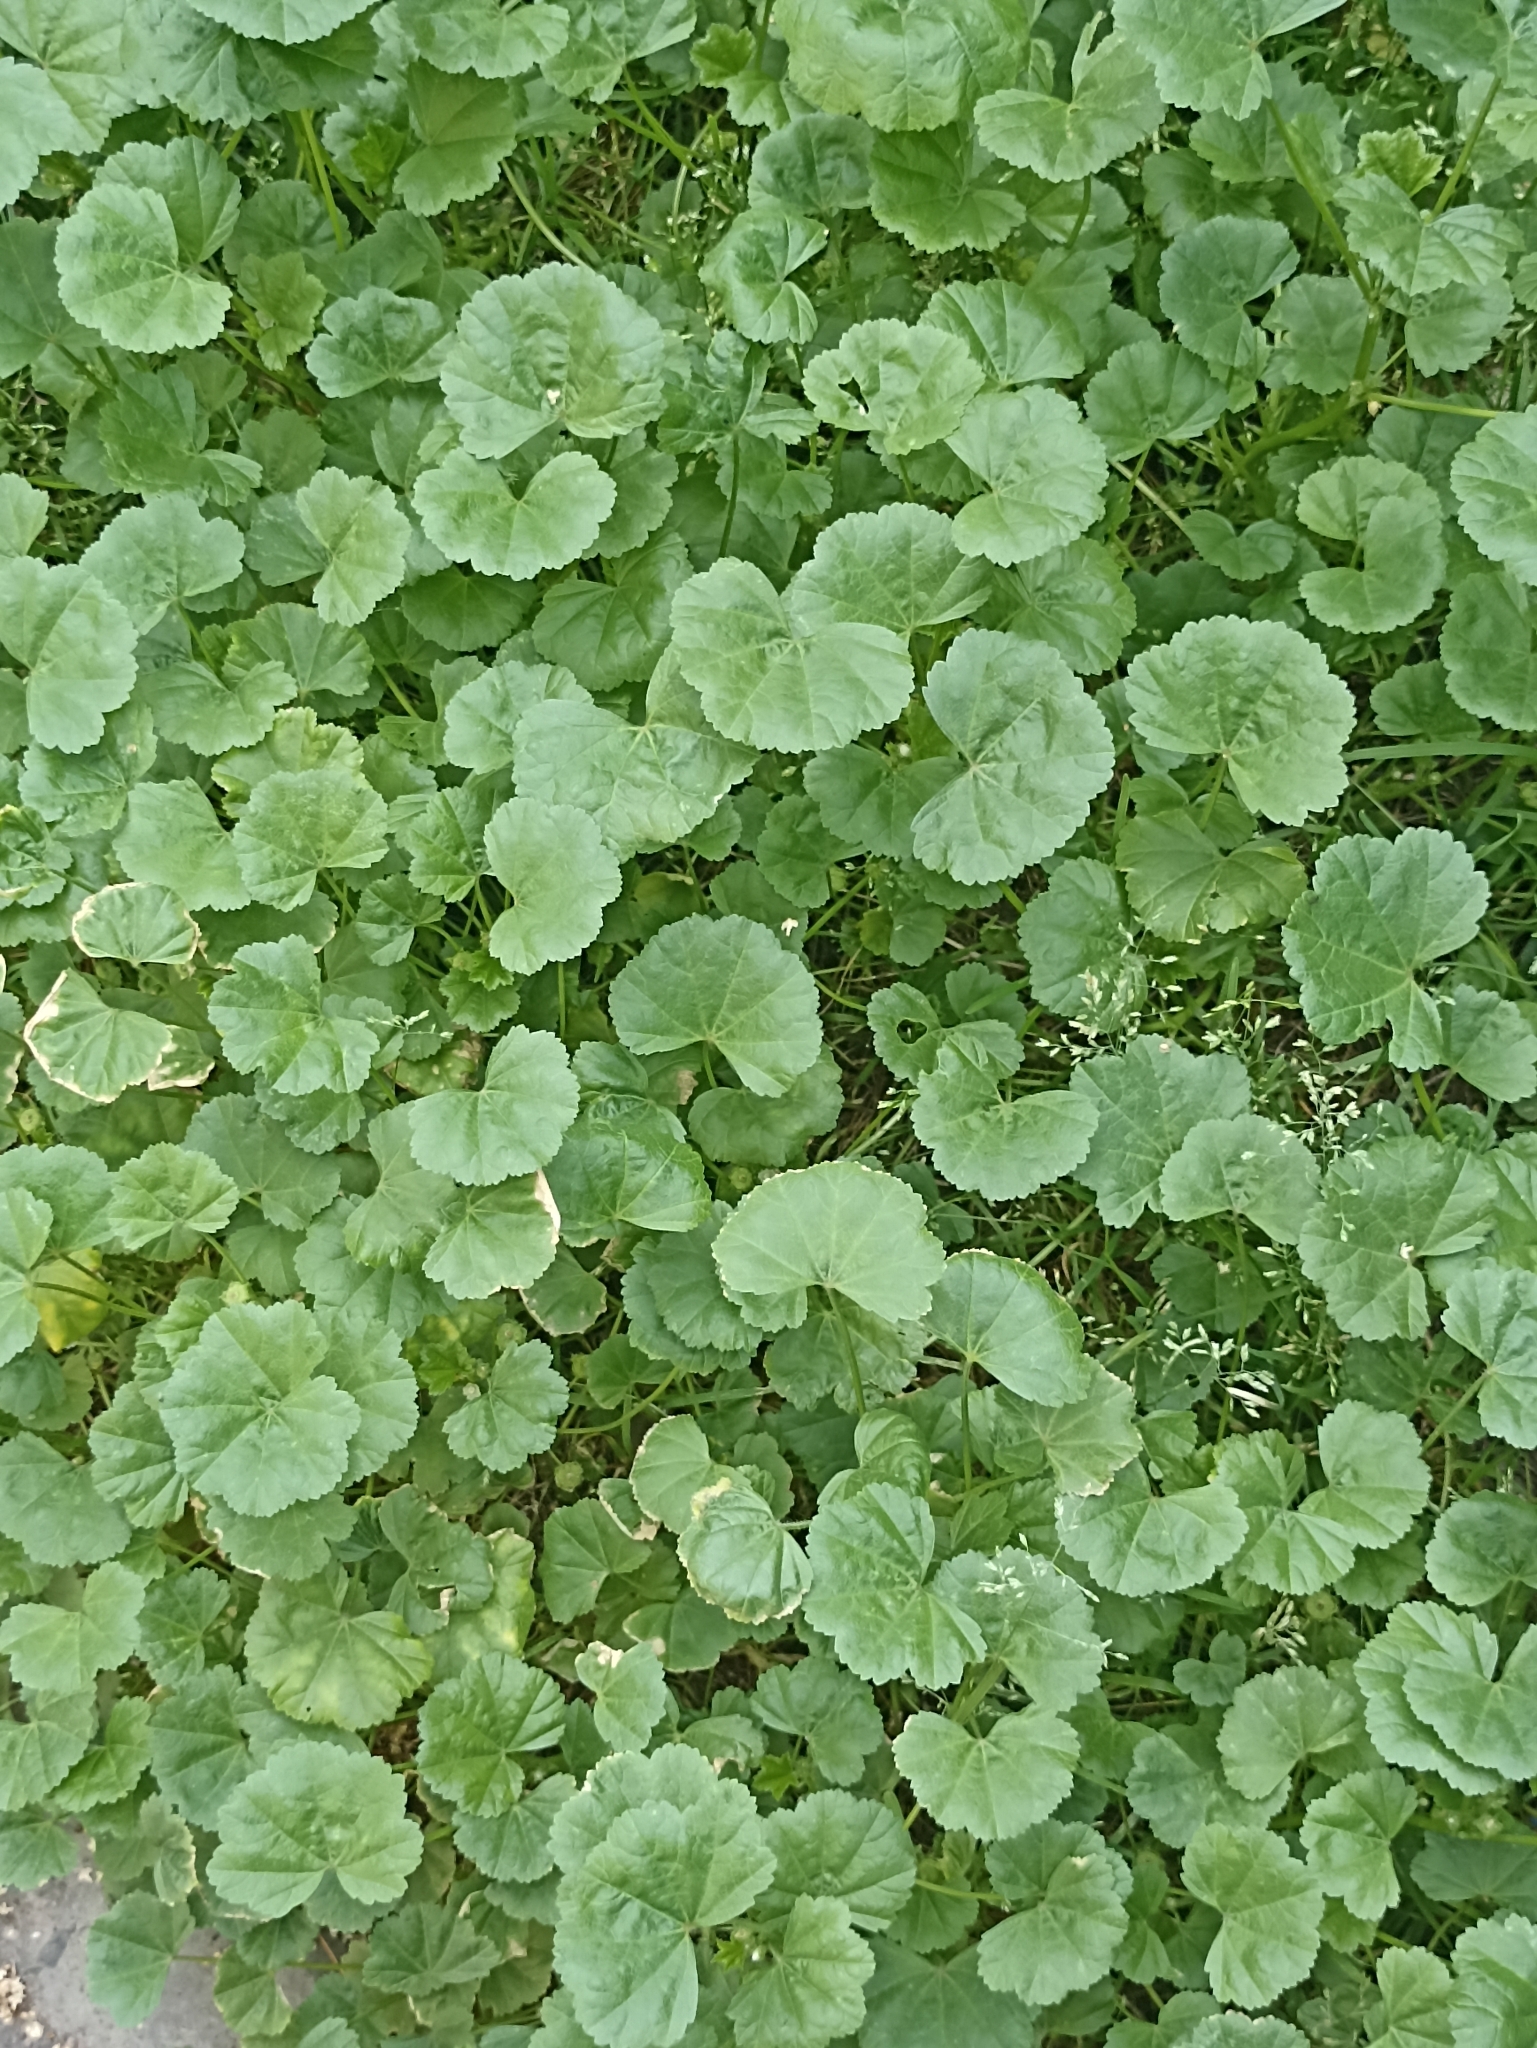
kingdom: Plantae
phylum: Tracheophyta
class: Magnoliopsida
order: Malvales
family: Malvaceae
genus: Malva
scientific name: Malva pusilla
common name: Small mallow
